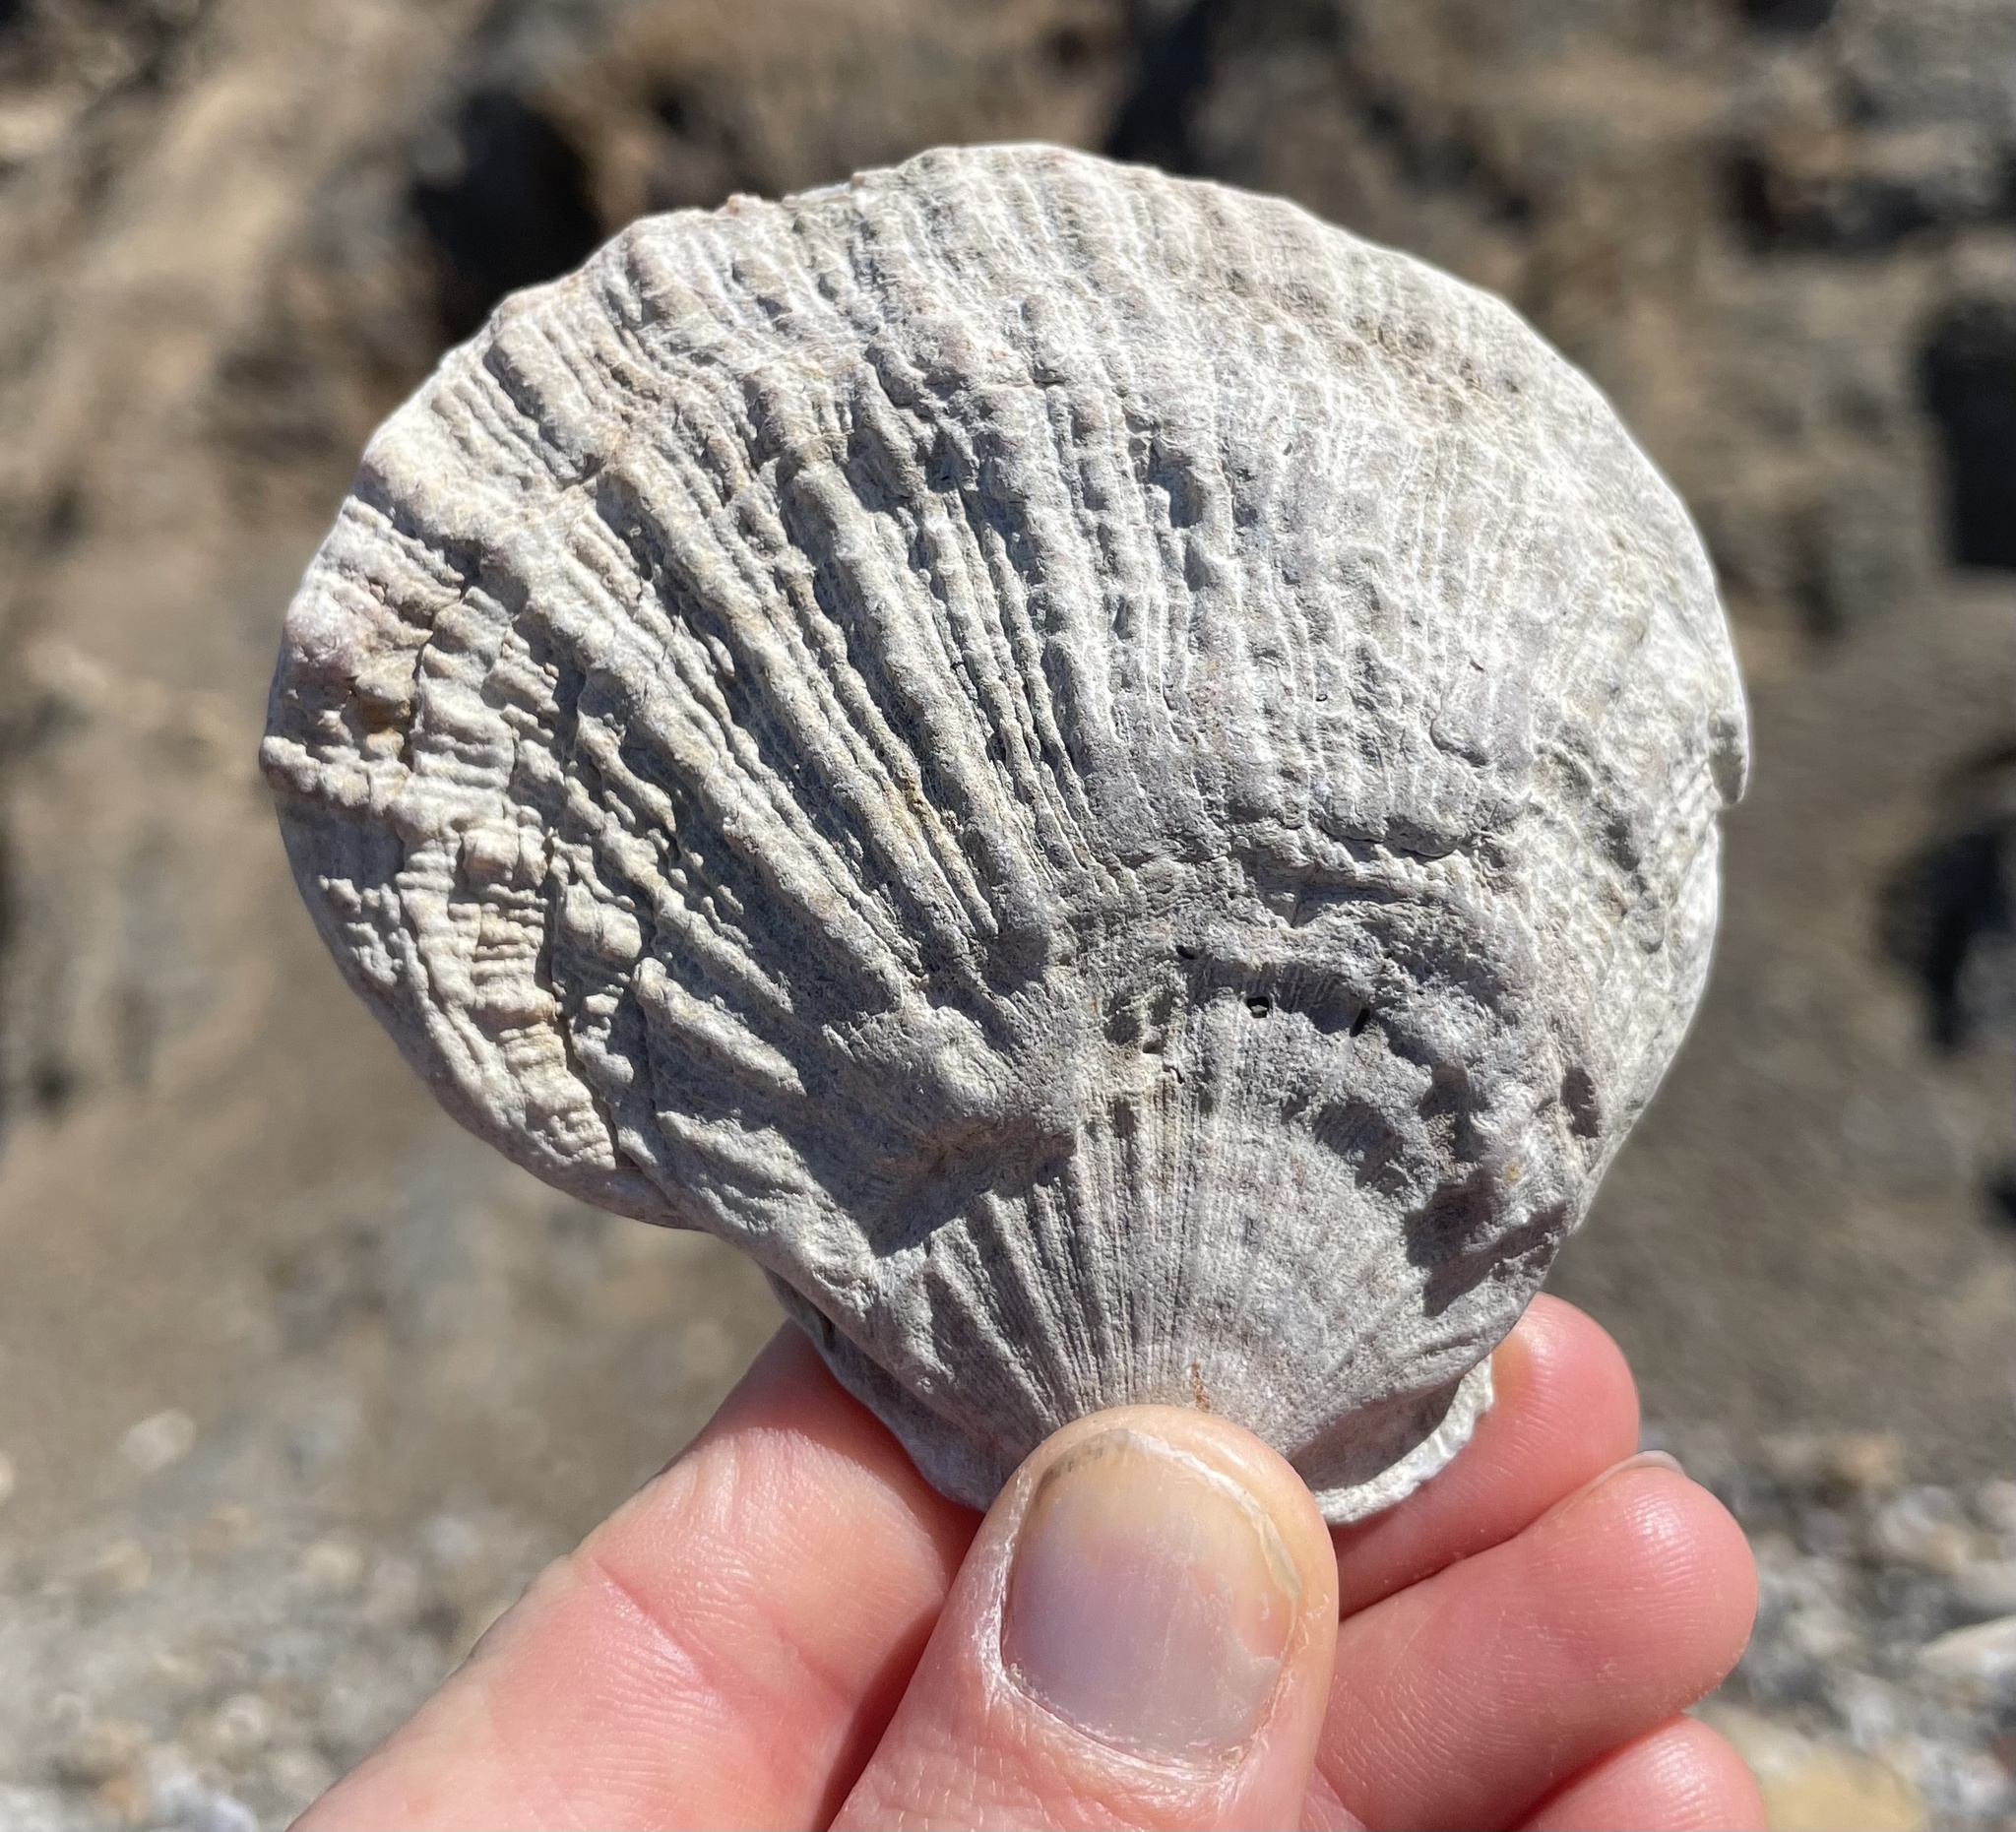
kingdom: Animalia
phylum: Mollusca
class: Bivalvia
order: Pectinida
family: Pectinidae
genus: Crassadoma
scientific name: Crassadoma gigantea
